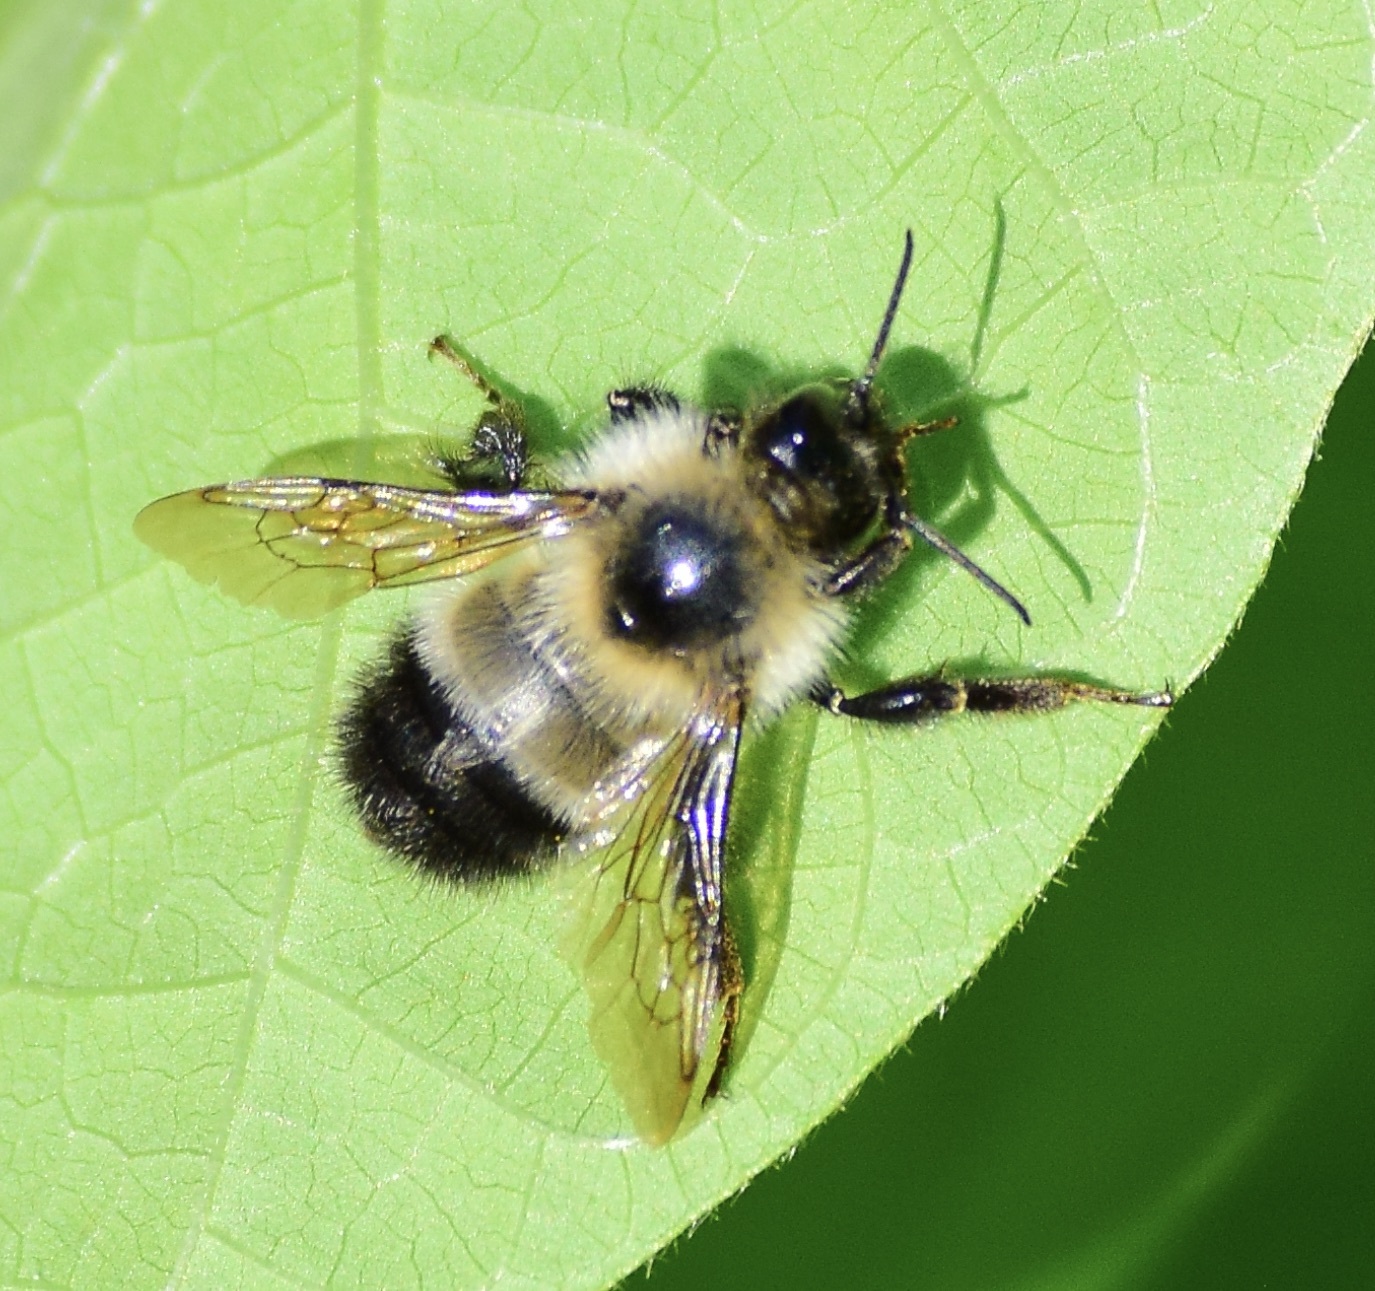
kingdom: Animalia
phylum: Arthropoda
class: Insecta
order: Hymenoptera
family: Apidae
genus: Pyrobombus
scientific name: Pyrobombus
